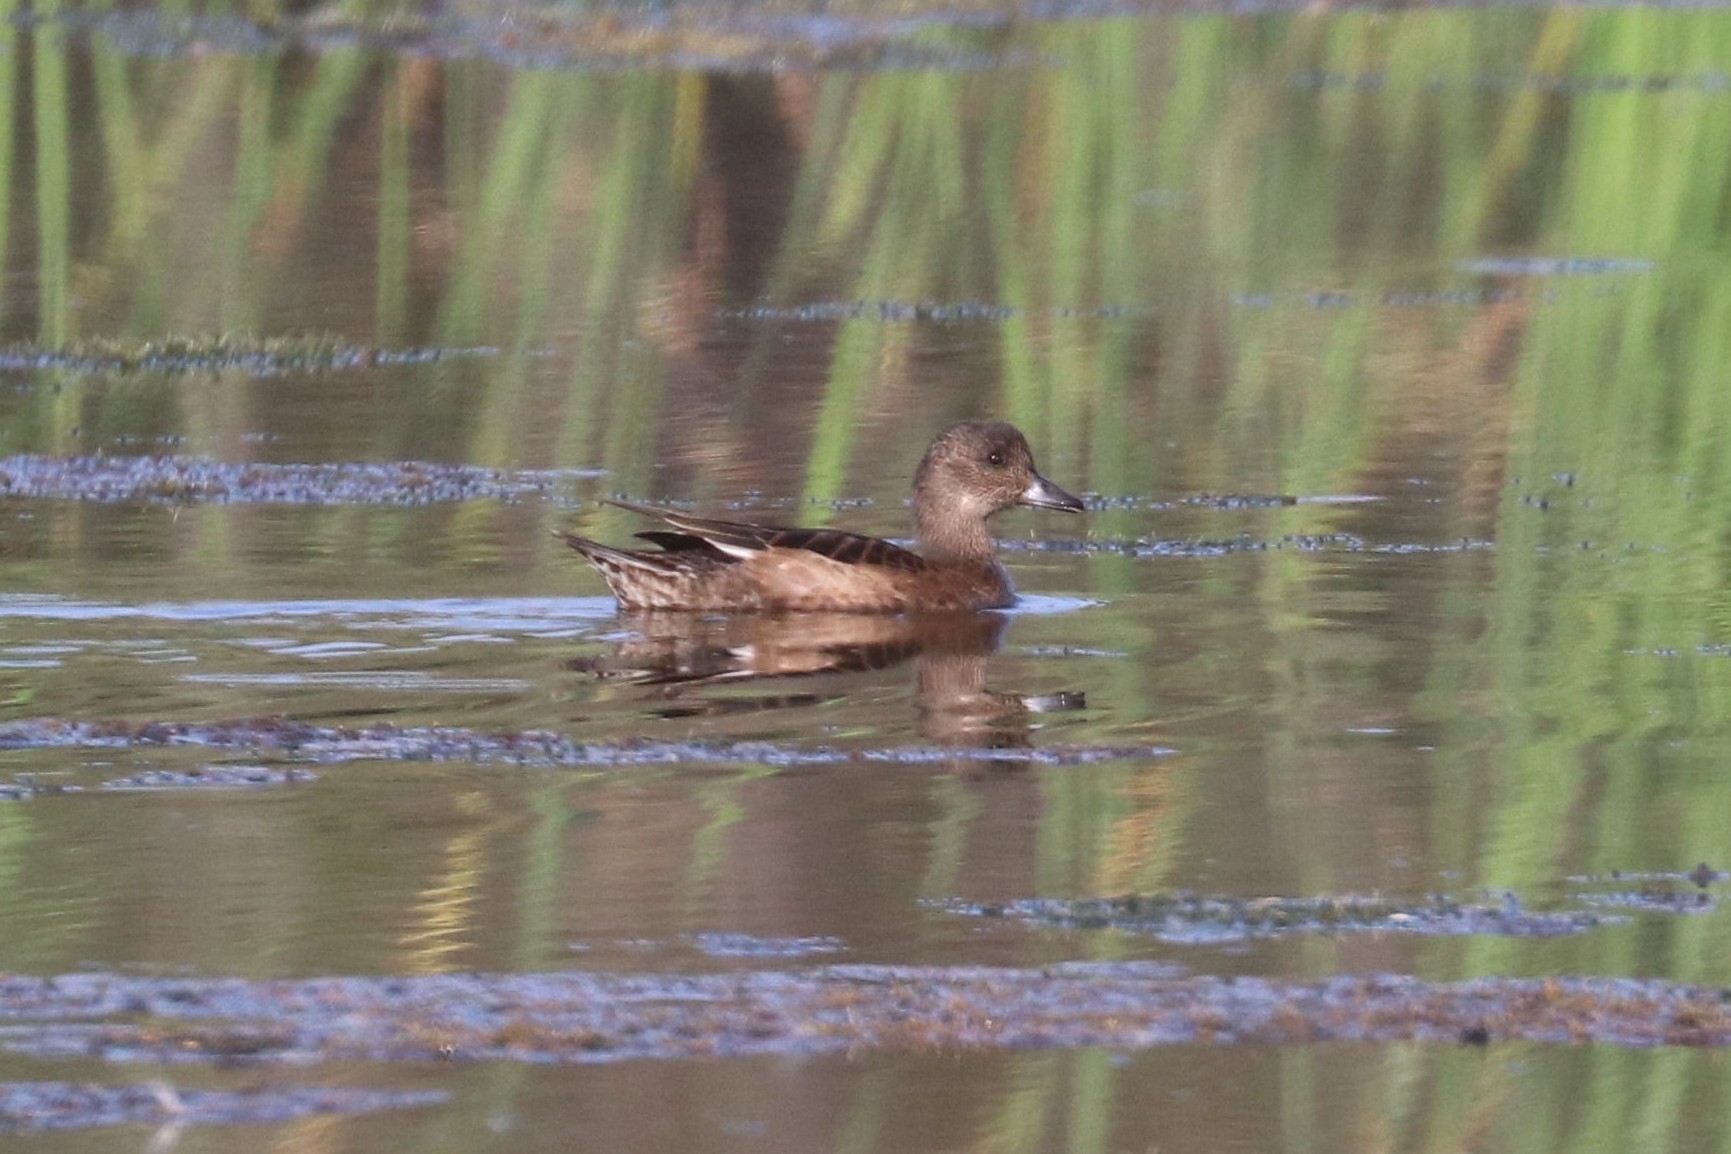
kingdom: Animalia
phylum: Chordata
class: Aves
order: Anseriformes
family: Anatidae
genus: Mareca
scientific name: Mareca penelope
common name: Eurasian wigeon
